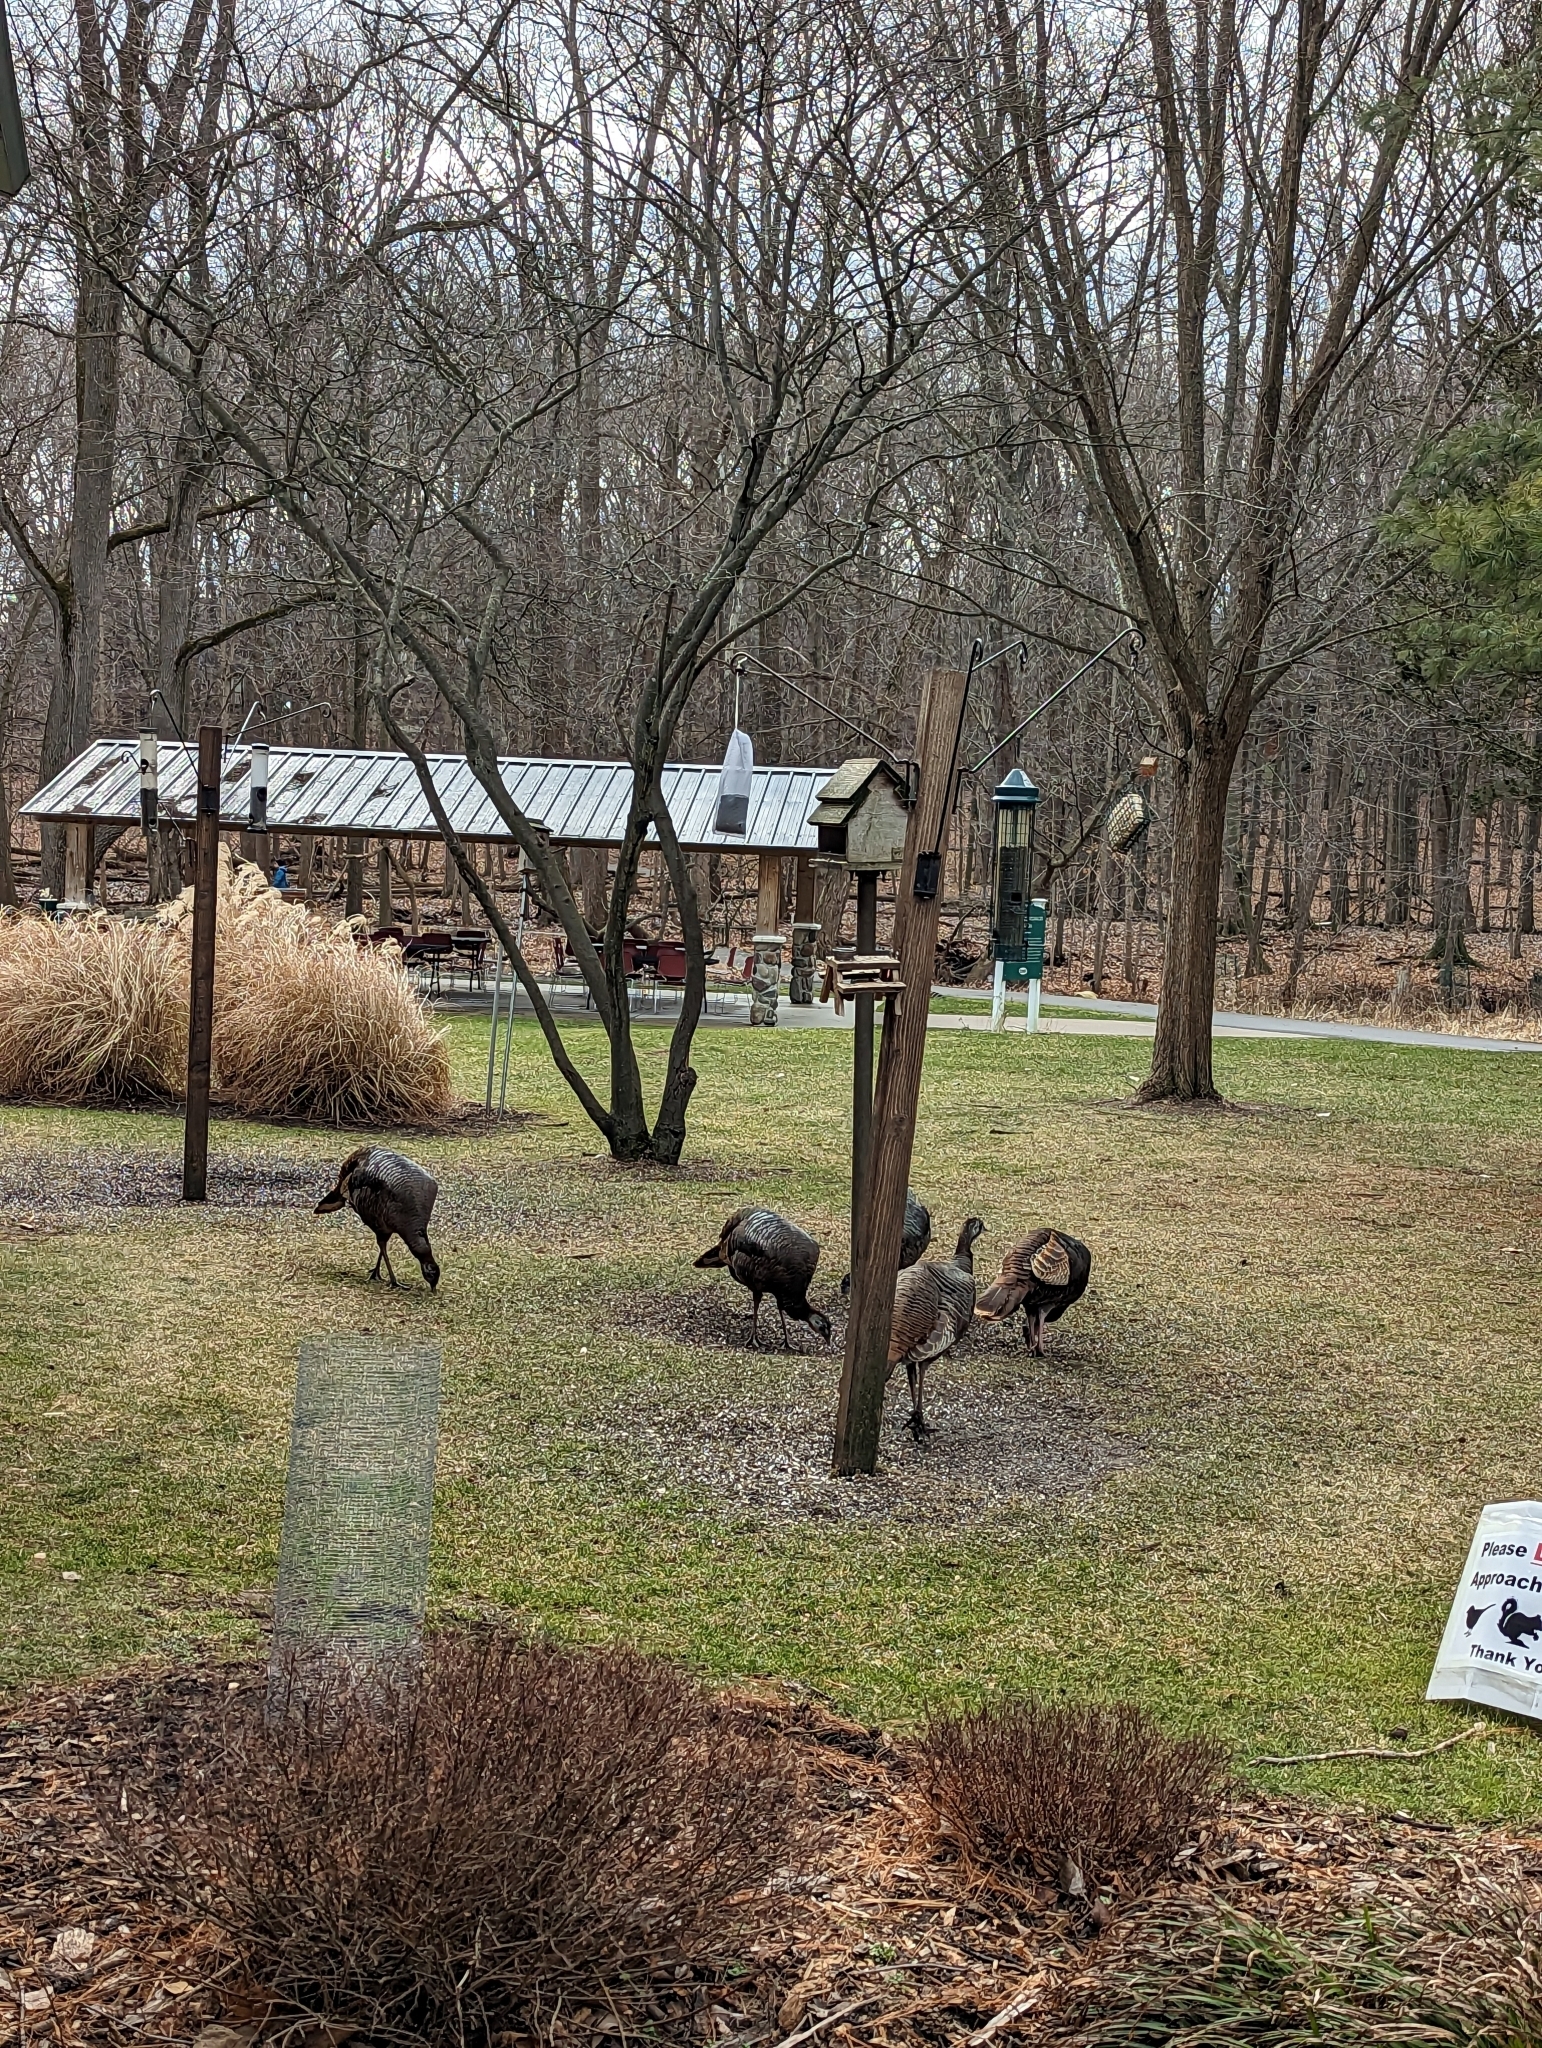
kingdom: Animalia
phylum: Chordata
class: Aves
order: Galliformes
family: Phasianidae
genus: Meleagris
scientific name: Meleagris gallopavo
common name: Wild turkey
